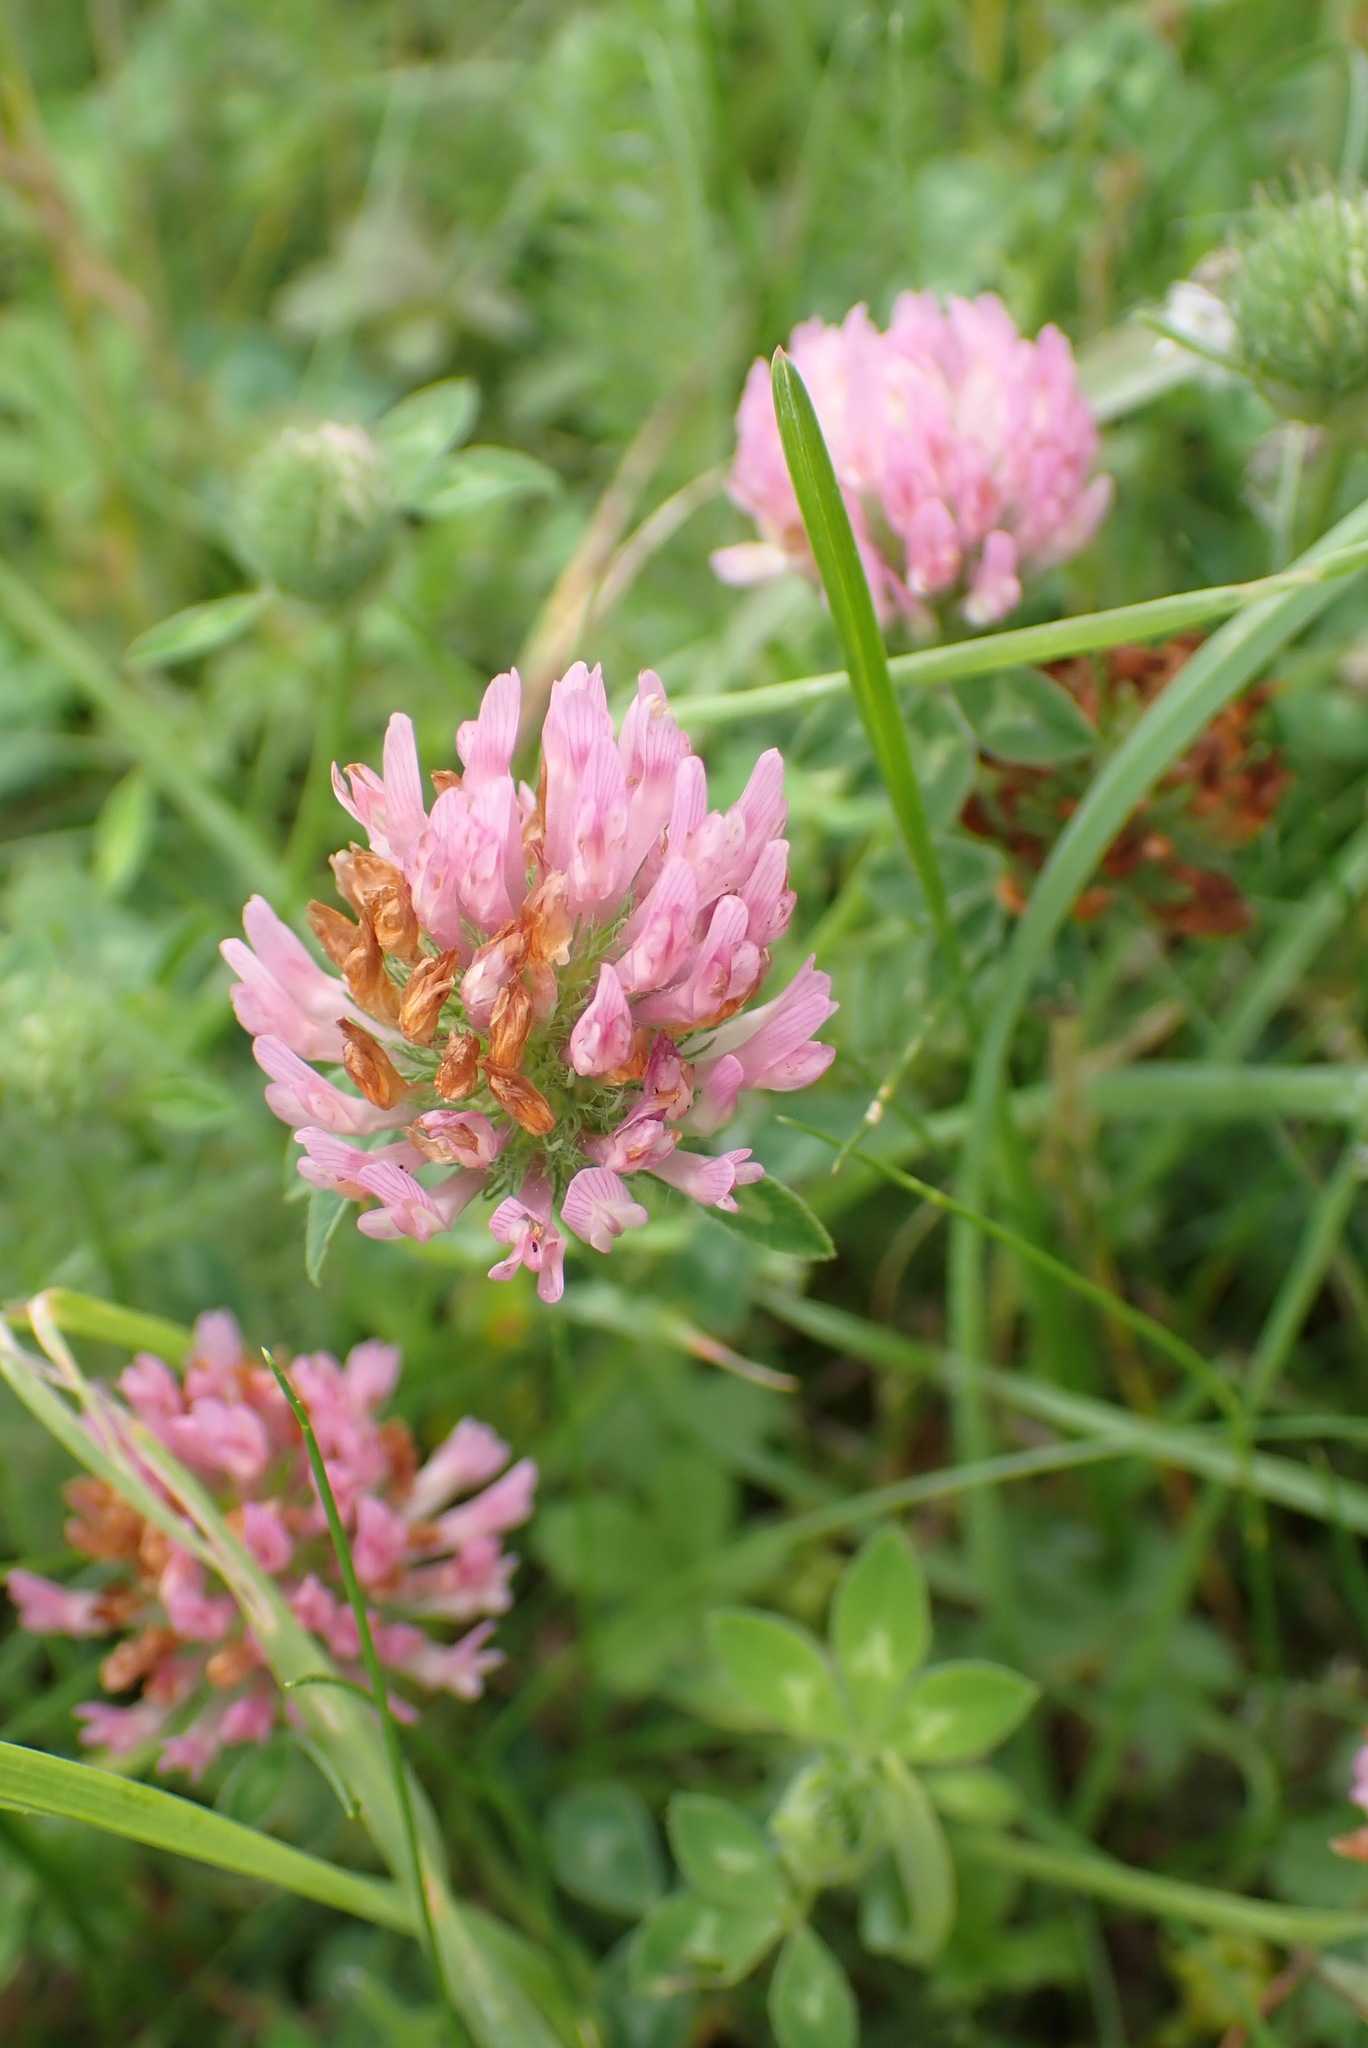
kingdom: Plantae
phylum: Tracheophyta
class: Magnoliopsida
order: Fabales
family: Fabaceae
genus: Trifolium
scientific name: Trifolium pratense
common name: Red clover
